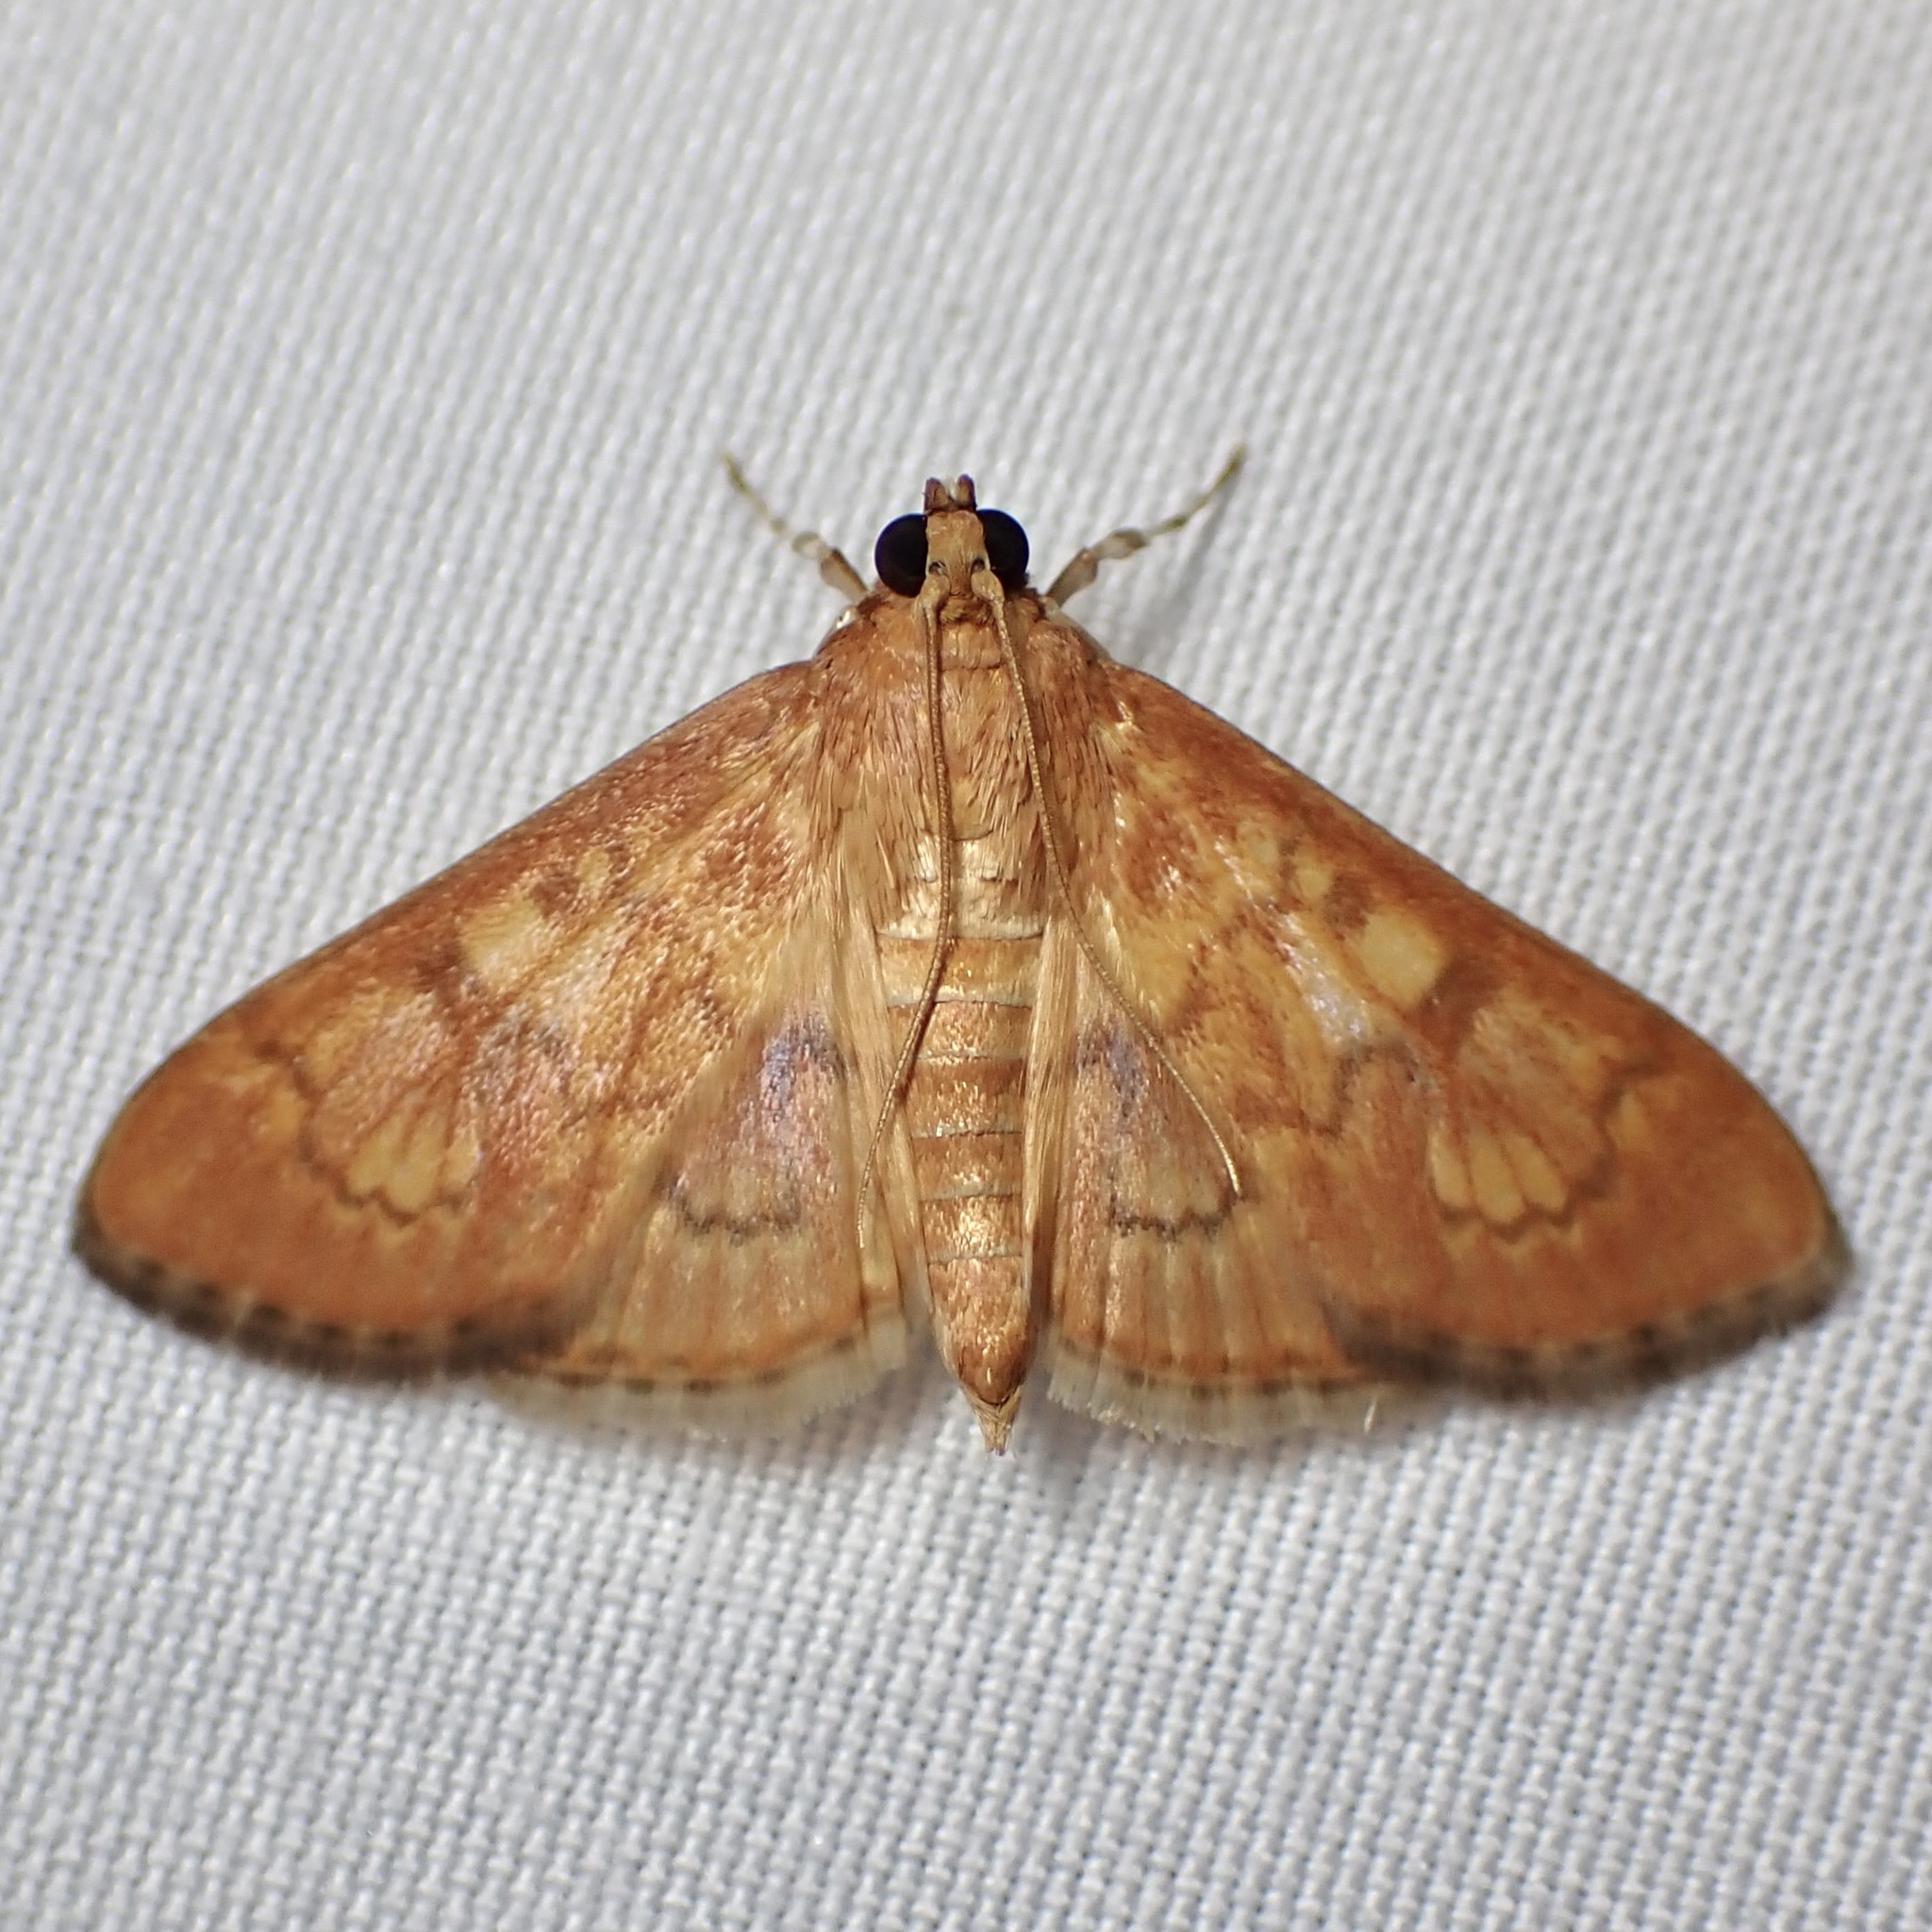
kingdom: Animalia
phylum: Arthropoda
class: Insecta
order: Lepidoptera
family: Crambidae
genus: Pilocrocis
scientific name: Pilocrocis dryalis
